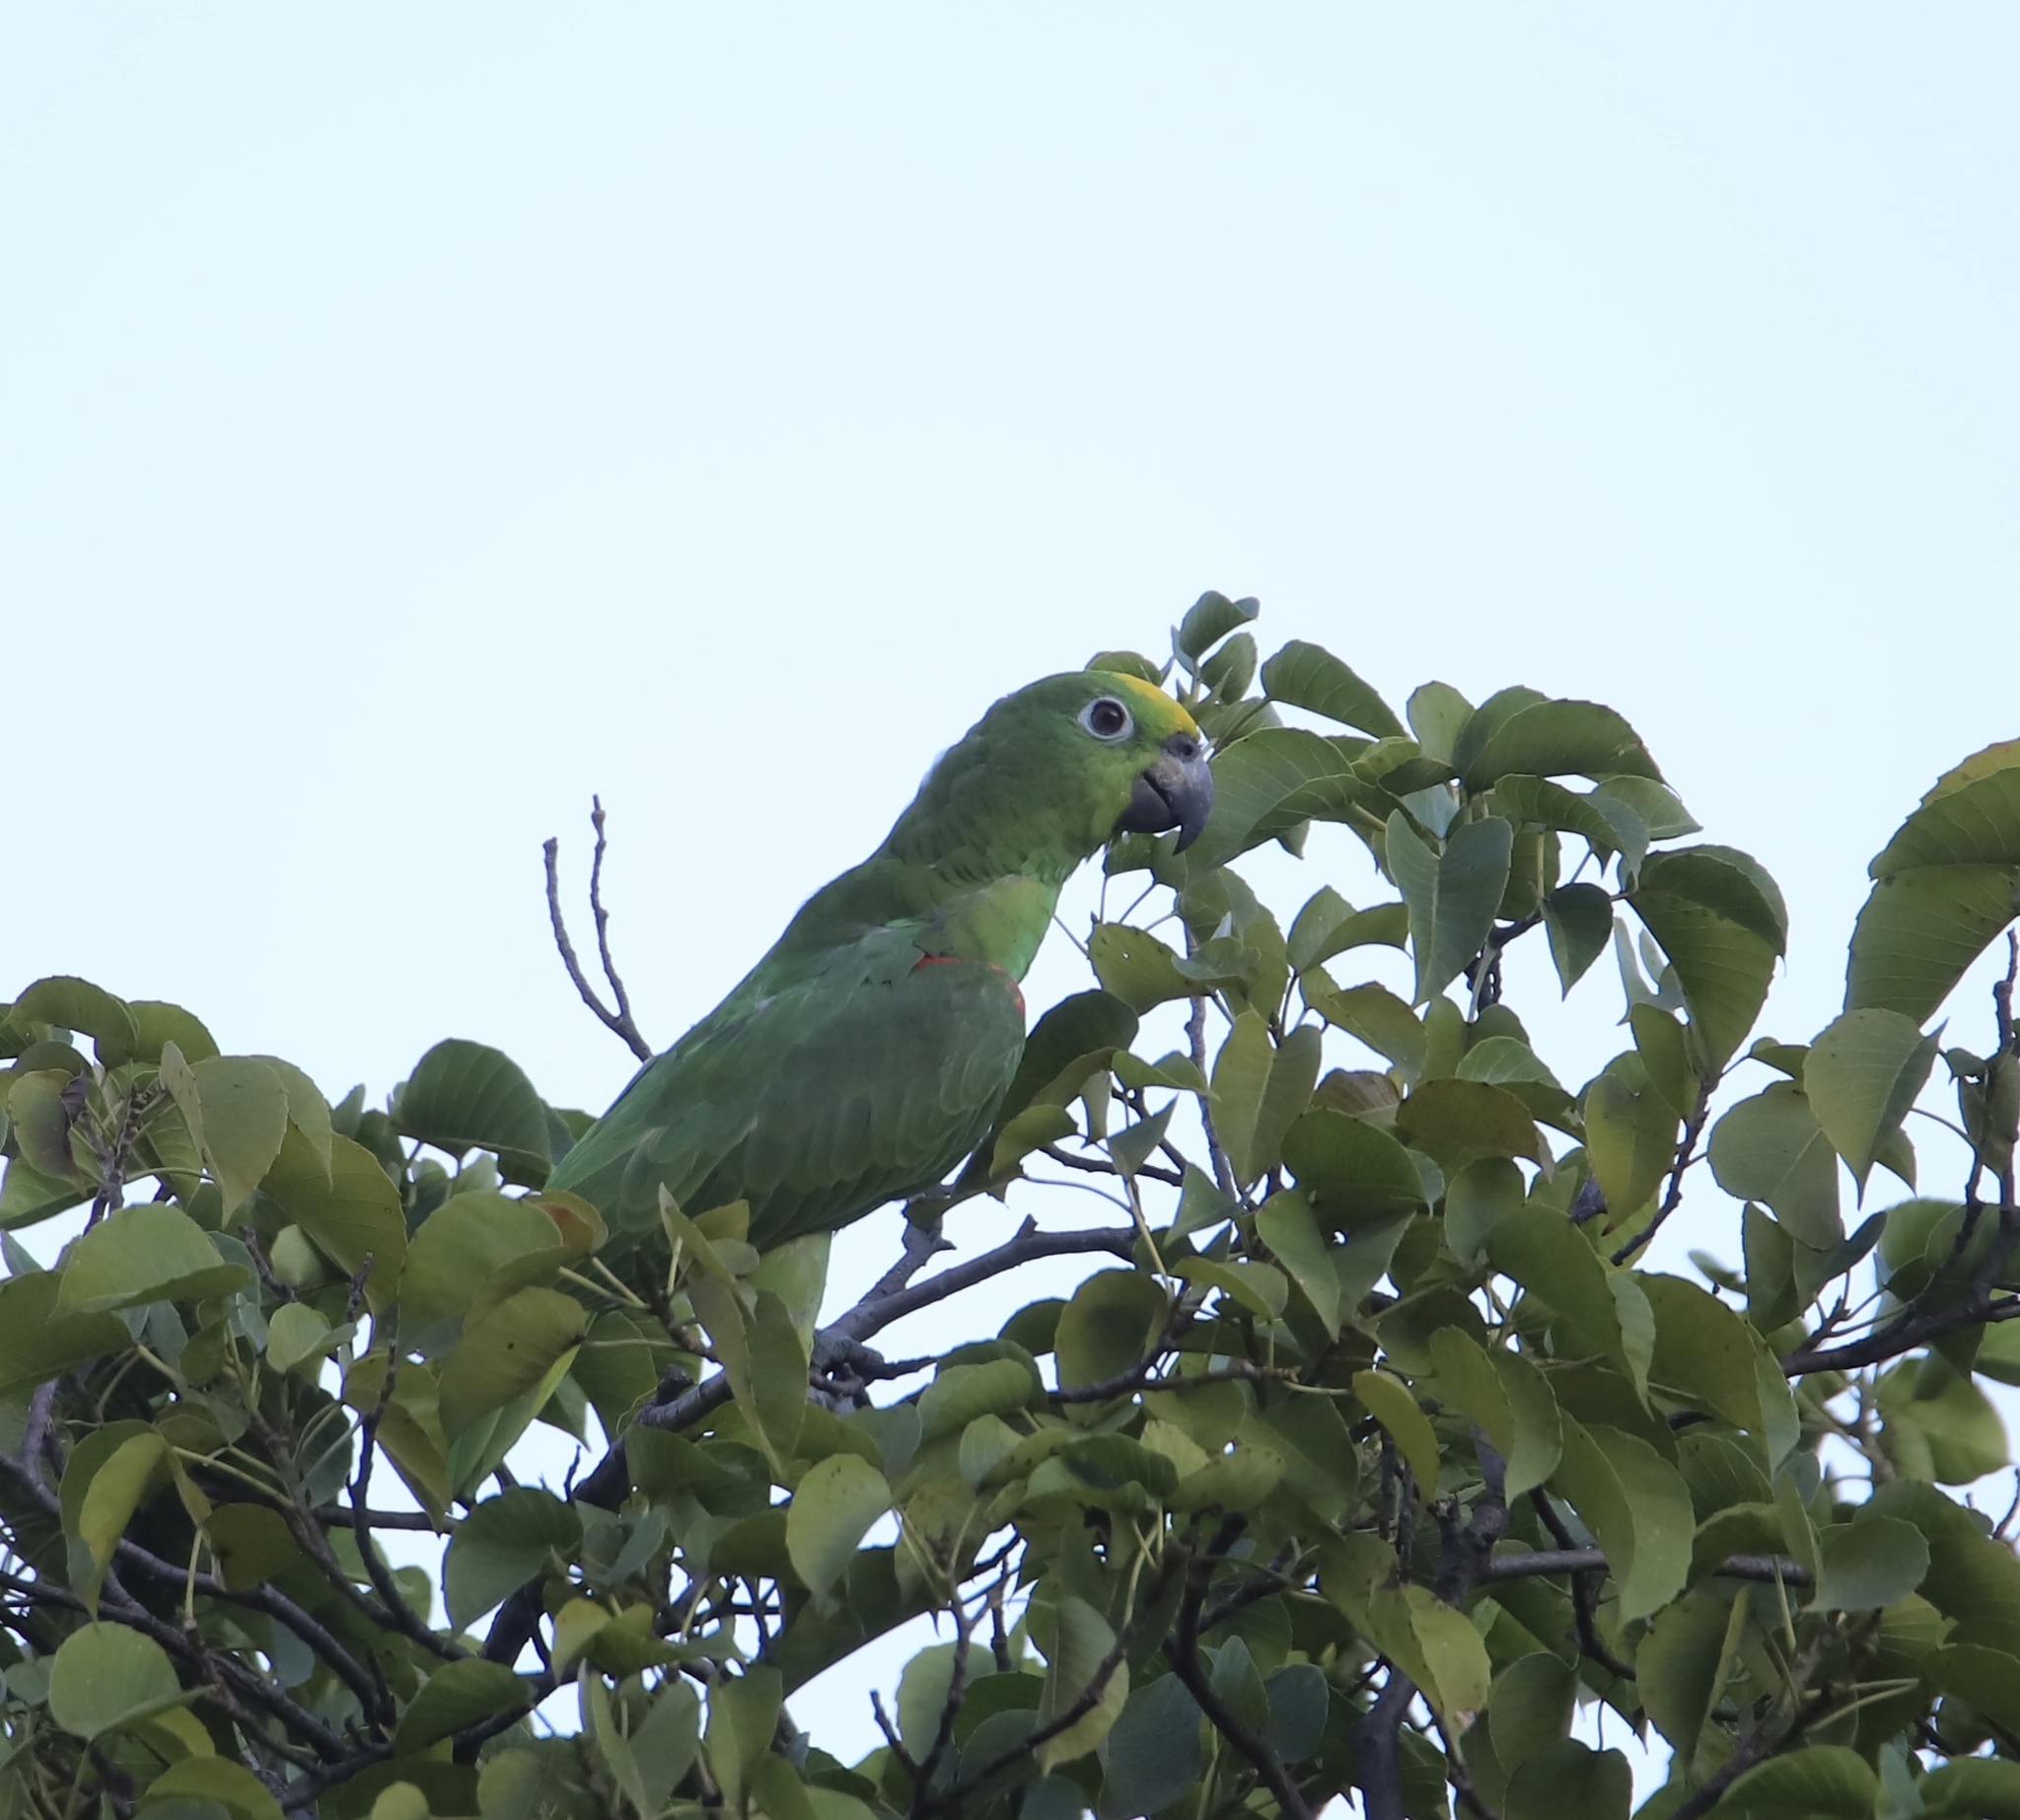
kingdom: Animalia
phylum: Chordata
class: Aves
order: Psittaciformes
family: Psittacidae
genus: Amazona
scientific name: Amazona ochrocephala
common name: Yellow-crowned amazon
